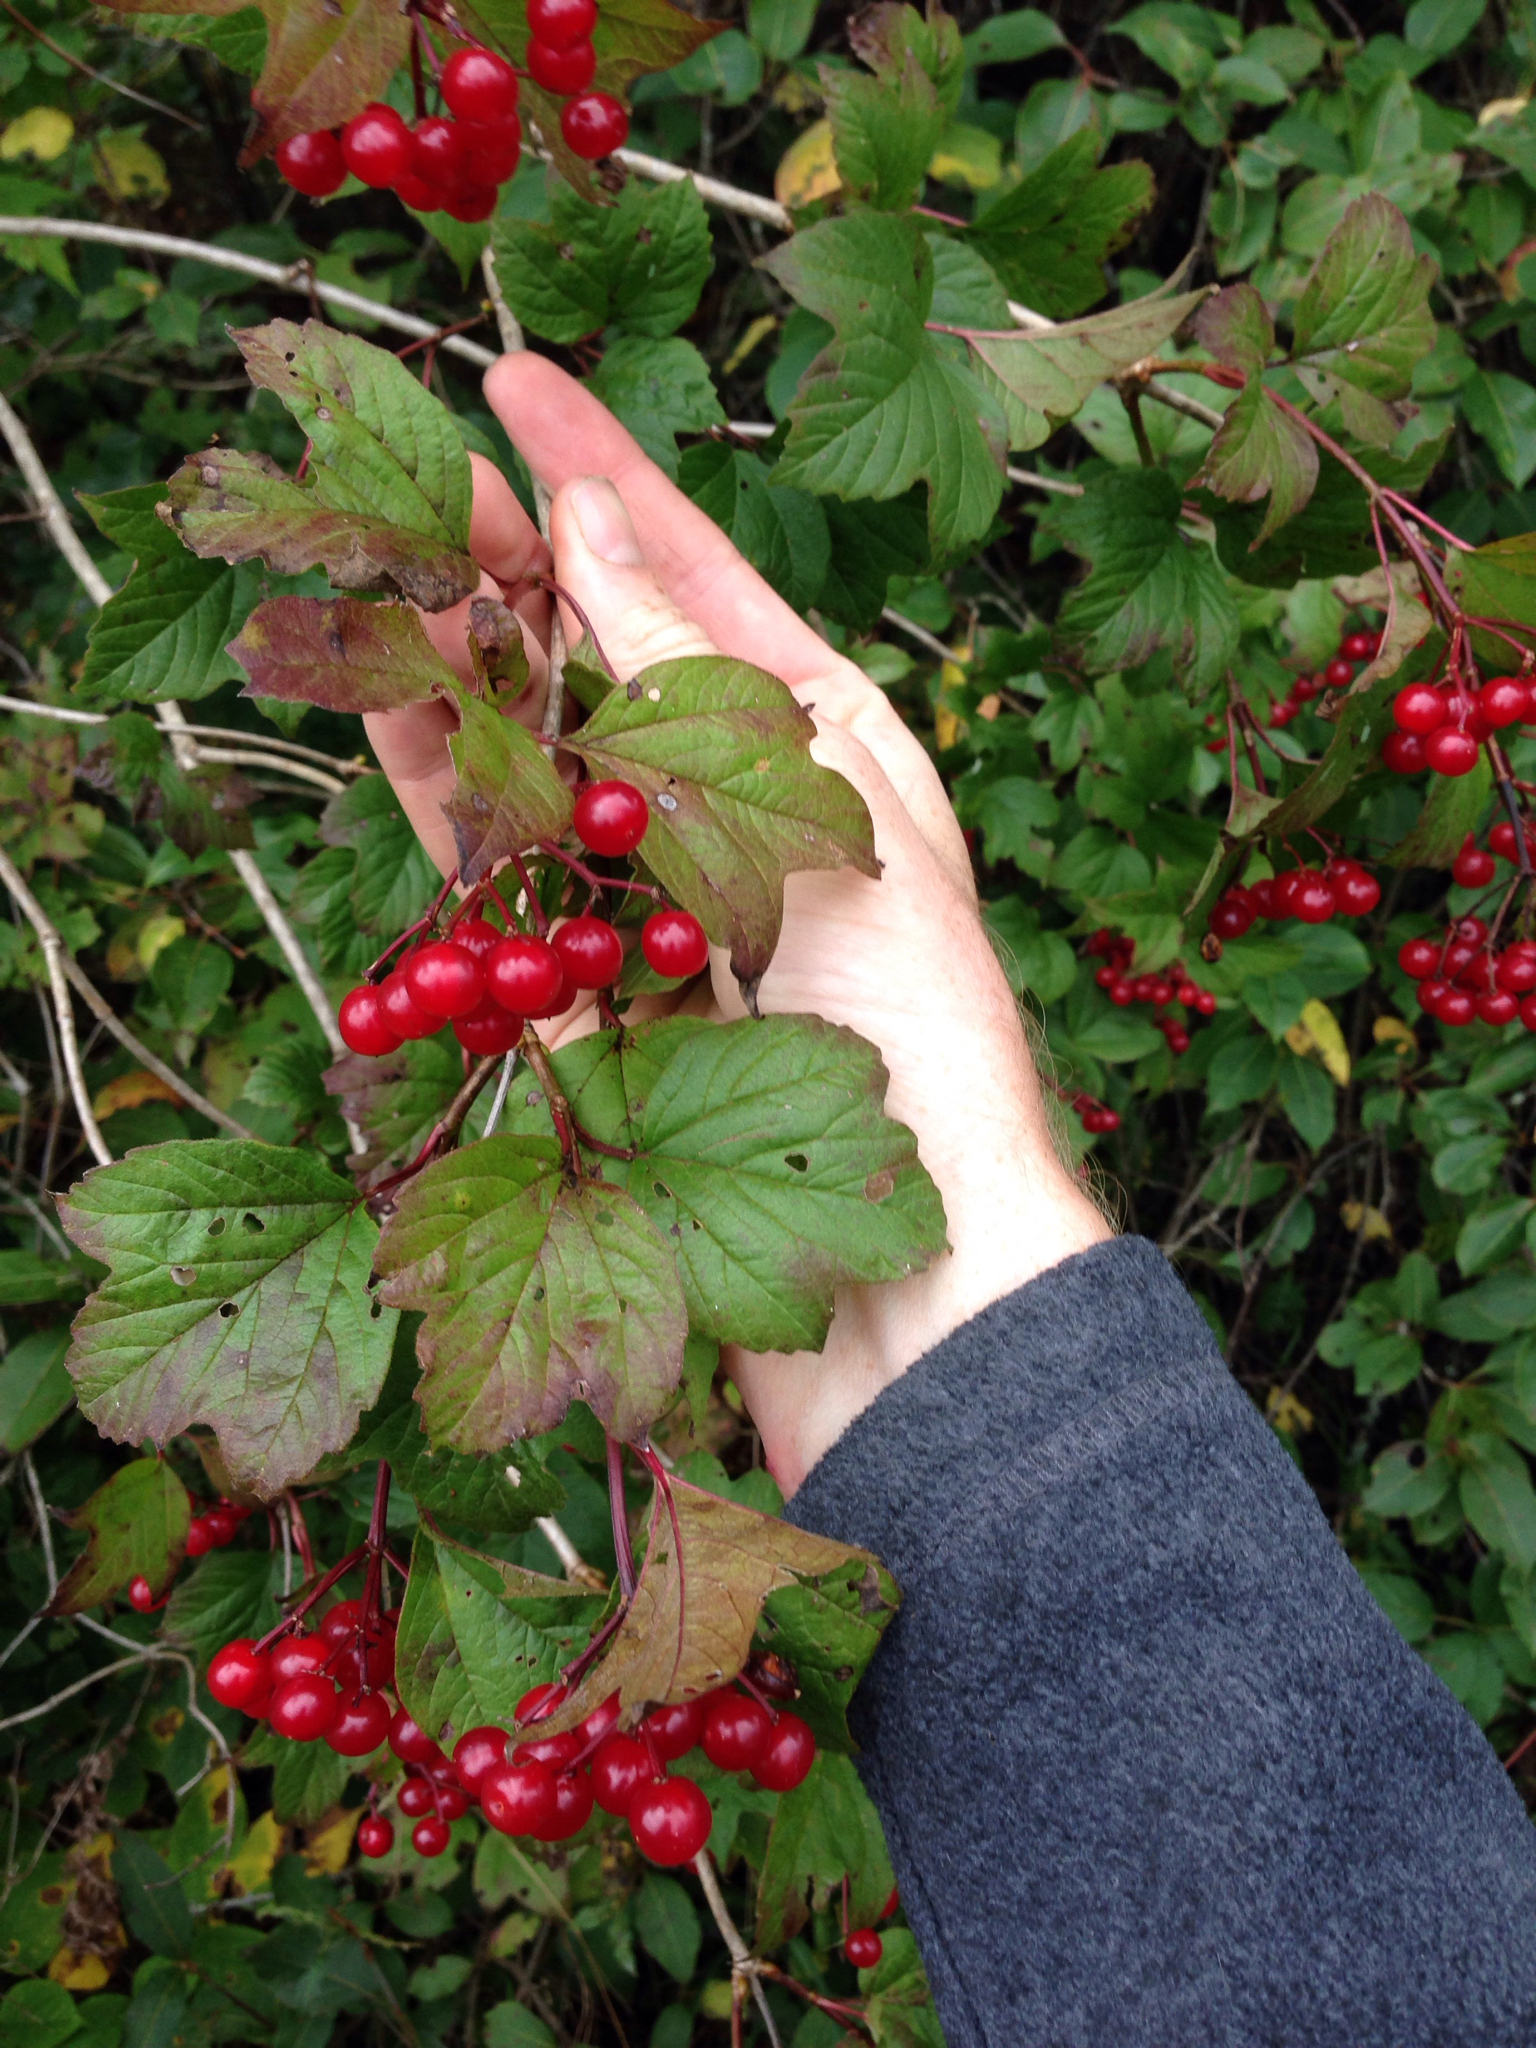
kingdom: Plantae
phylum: Tracheophyta
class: Magnoliopsida
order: Dipsacales
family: Viburnaceae
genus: Viburnum
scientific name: Viburnum opulus
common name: Guelder-rose
